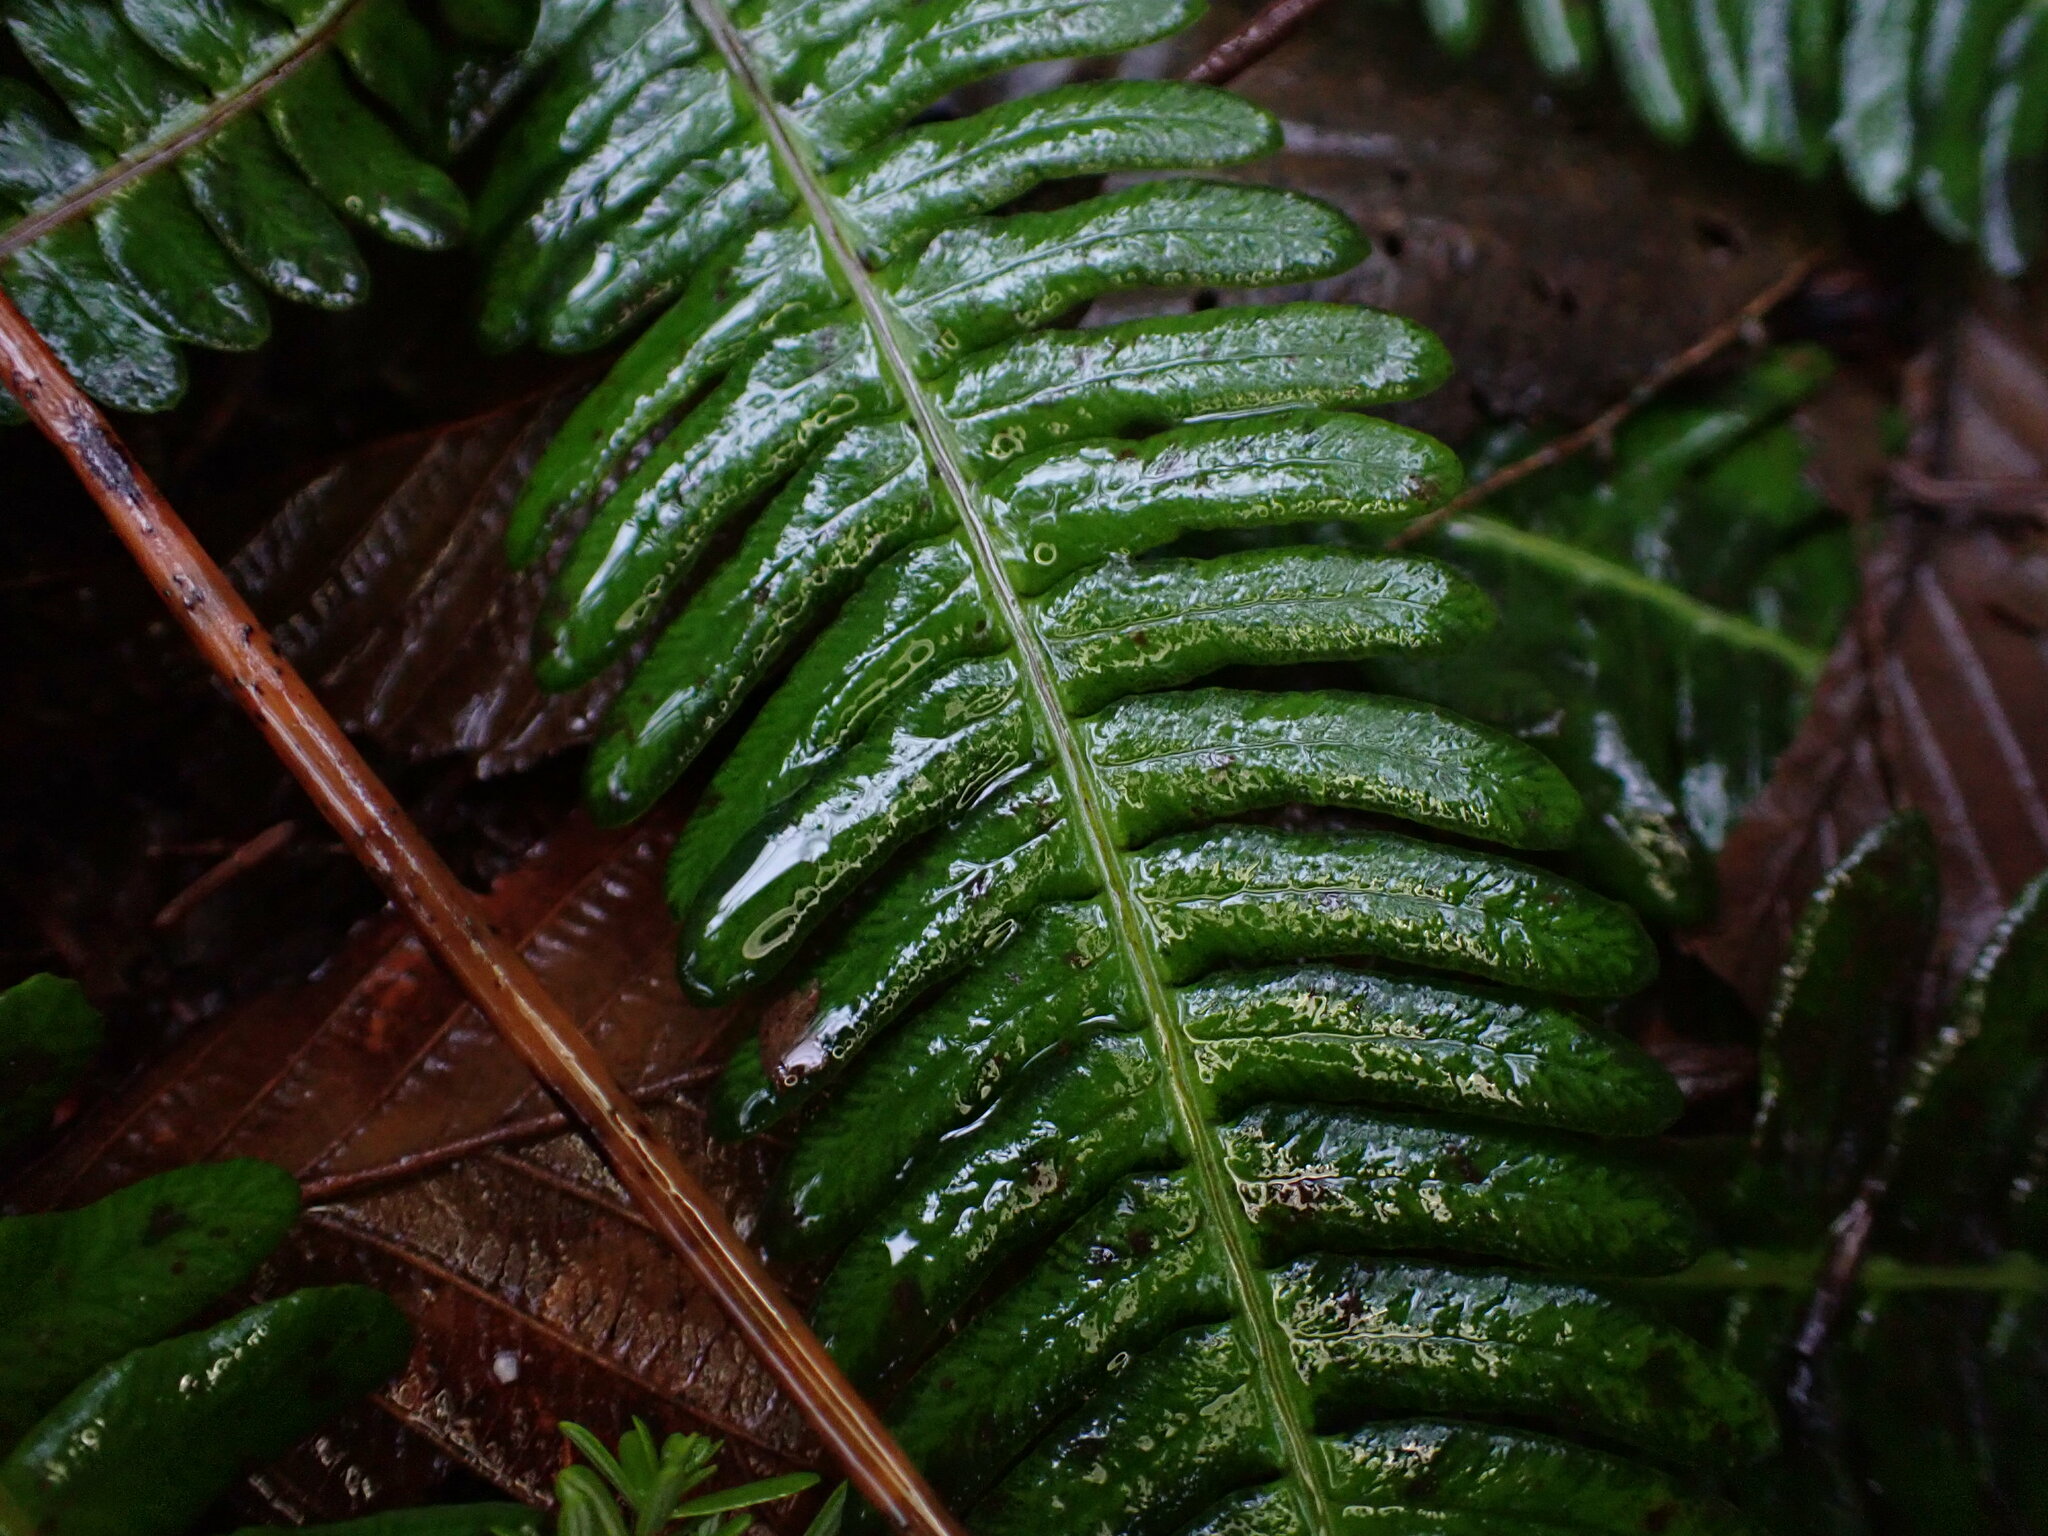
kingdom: Plantae
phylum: Tracheophyta
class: Polypodiopsida
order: Polypodiales
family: Blechnaceae
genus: Struthiopteris
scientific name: Struthiopteris spicant
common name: Deer fern
